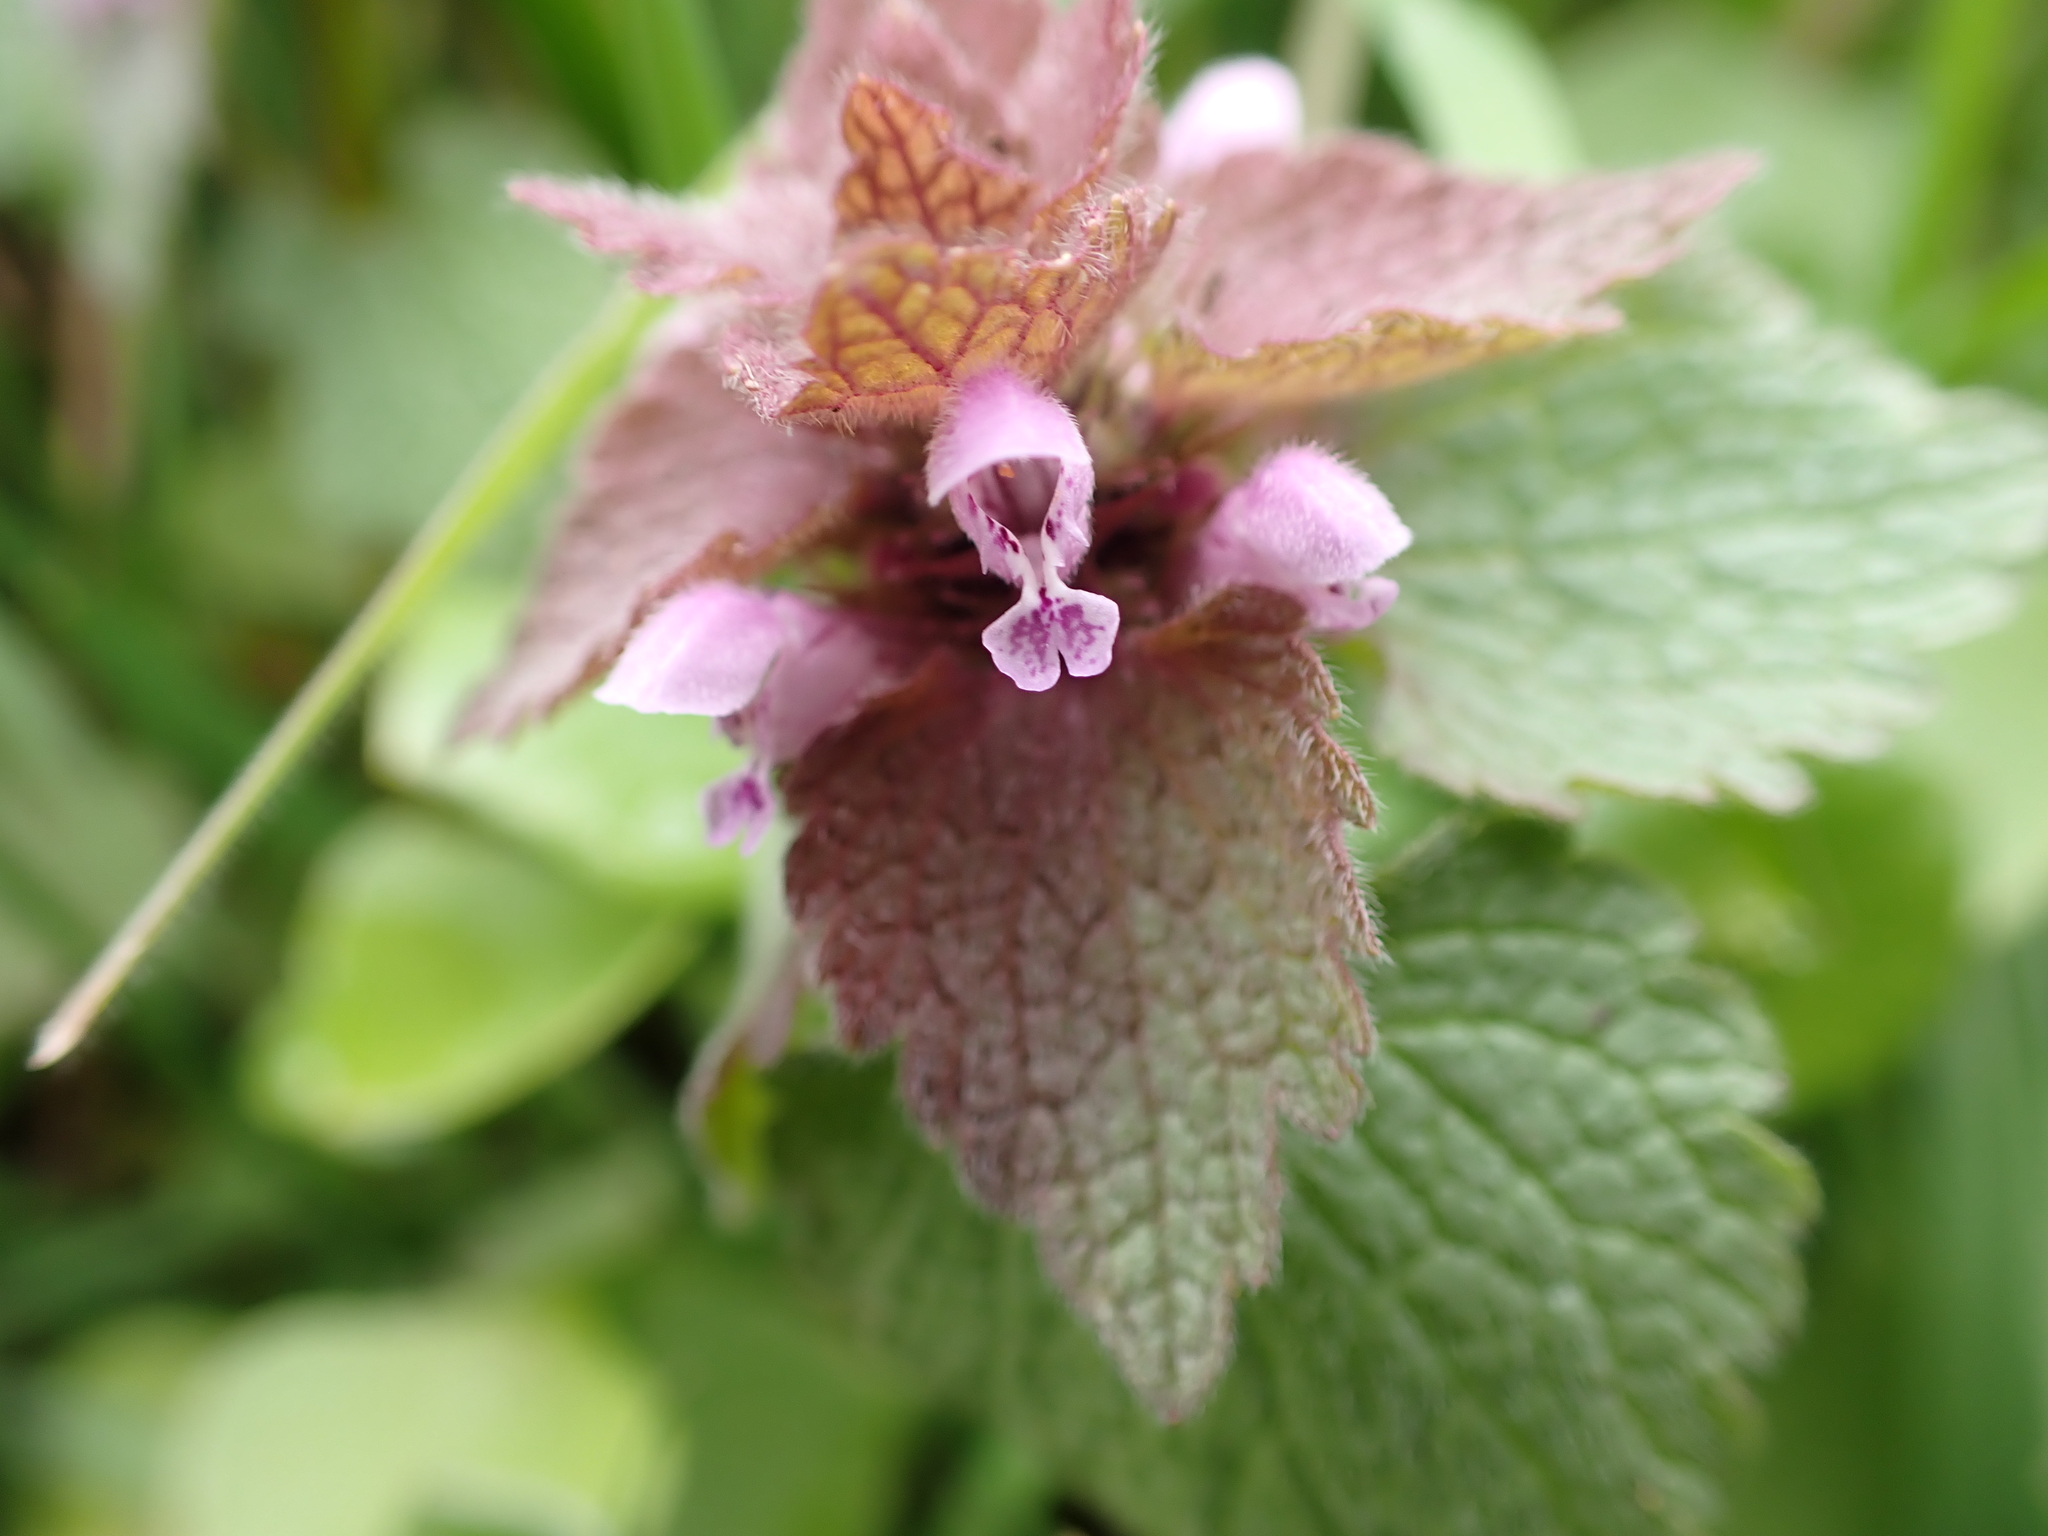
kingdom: Plantae
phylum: Tracheophyta
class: Magnoliopsida
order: Lamiales
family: Lamiaceae
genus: Lamium
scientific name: Lamium purpureum
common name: Red dead-nettle
